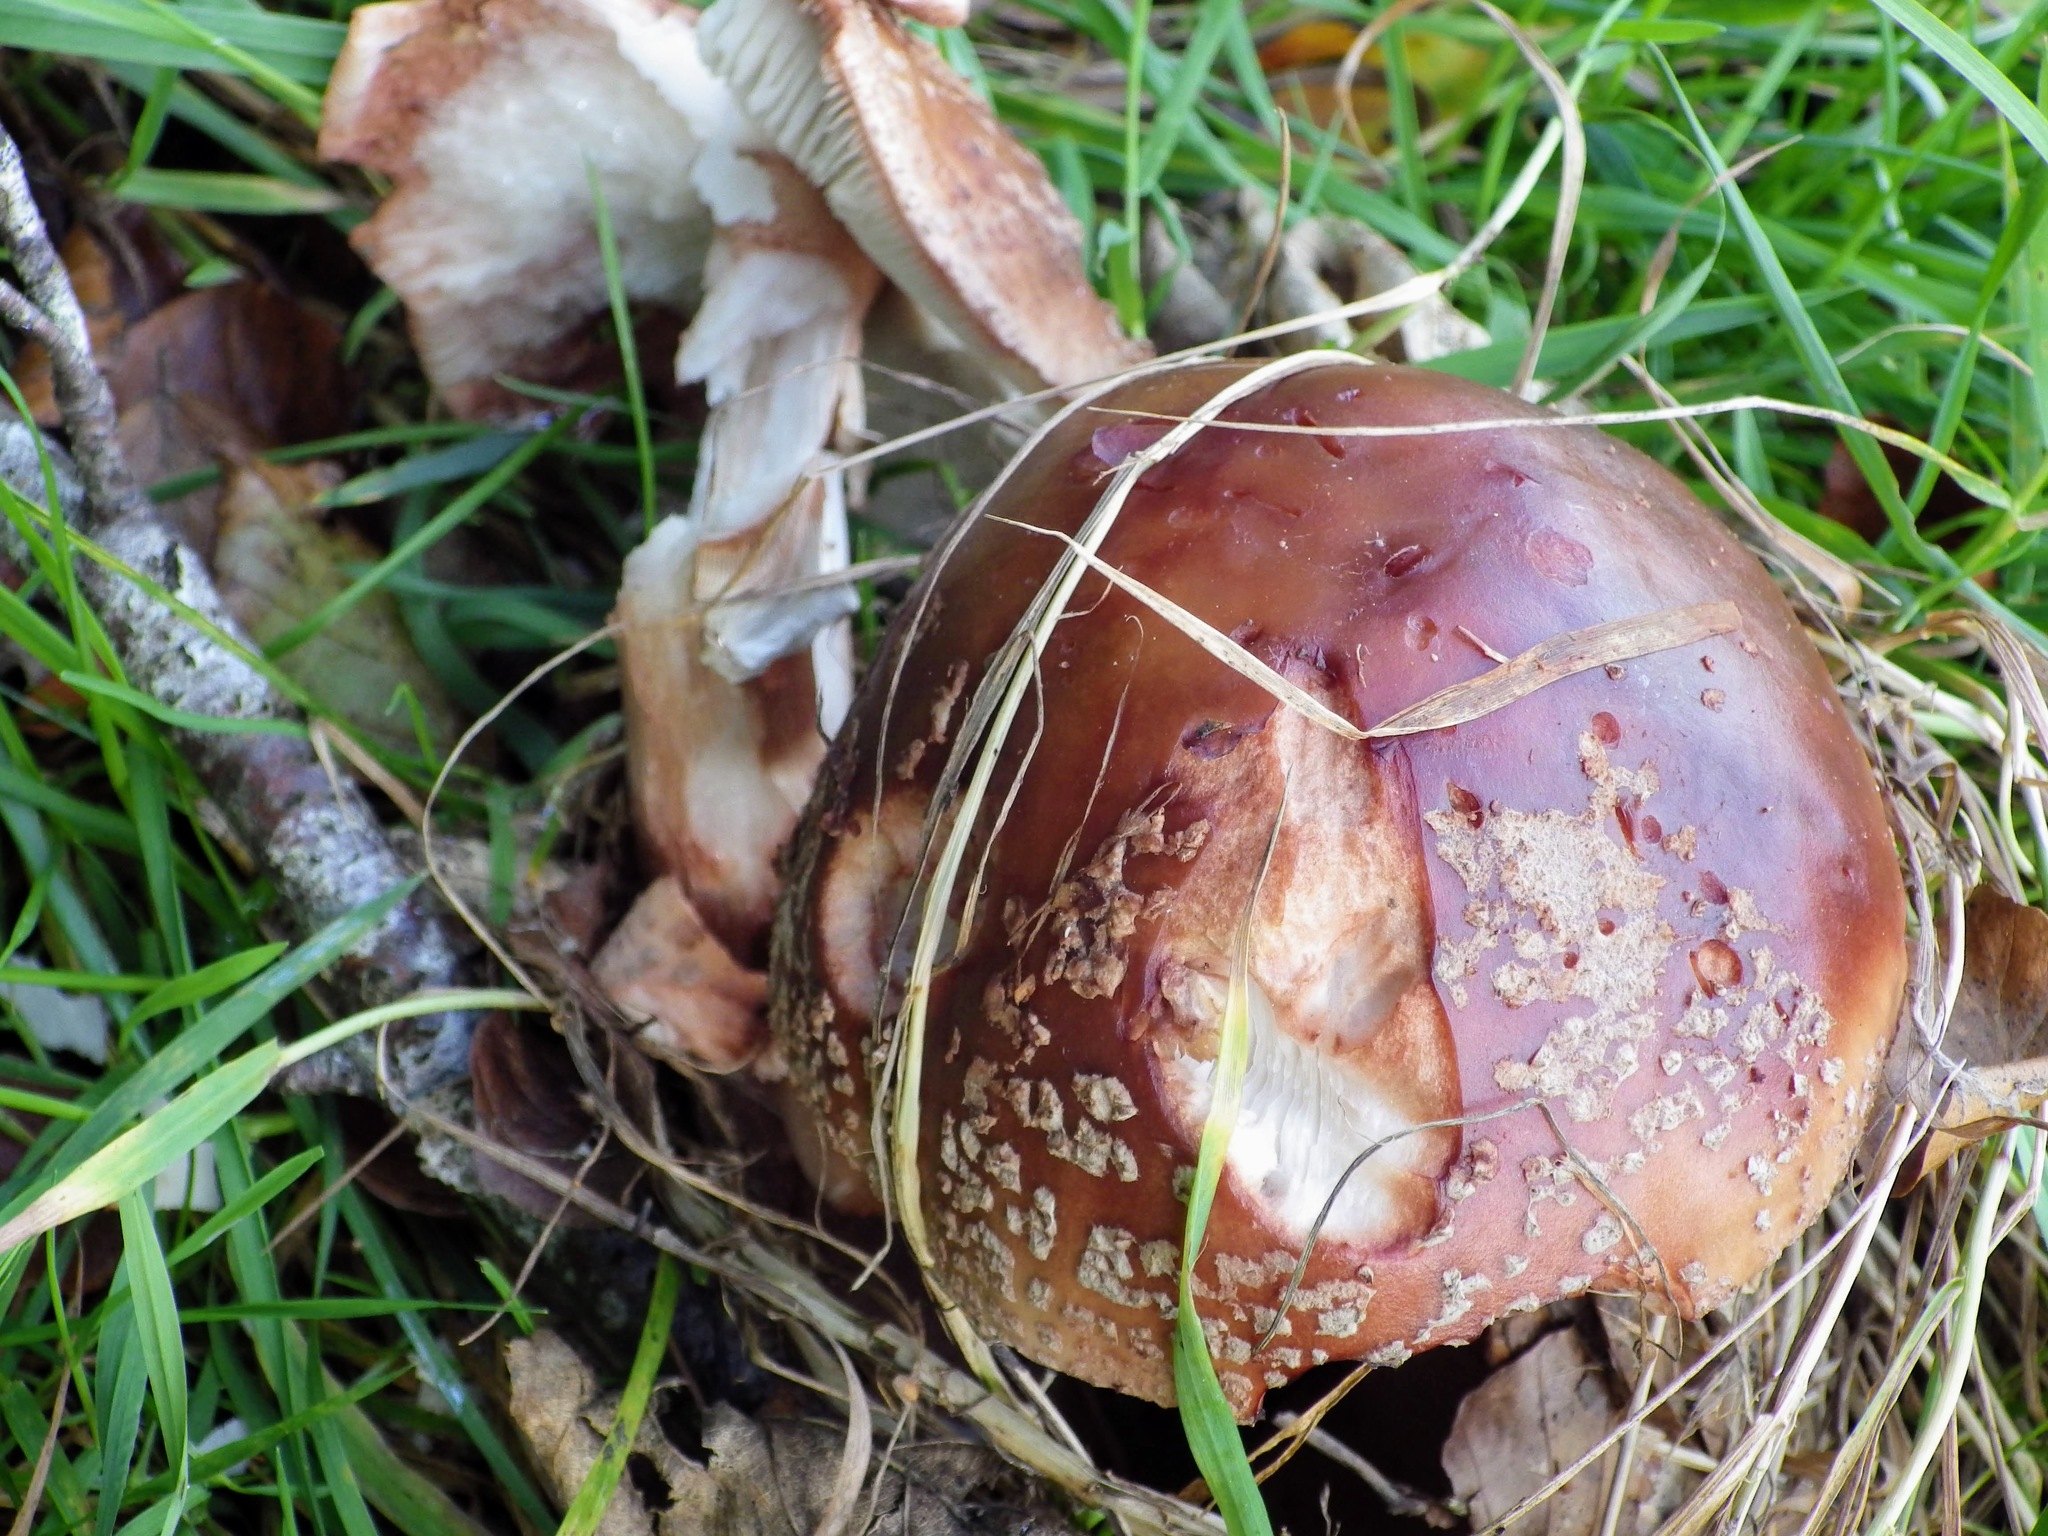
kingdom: Fungi
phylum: Basidiomycota
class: Agaricomycetes
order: Agaricales
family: Amanitaceae
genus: Amanita
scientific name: Amanita rubescens
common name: Blusher
